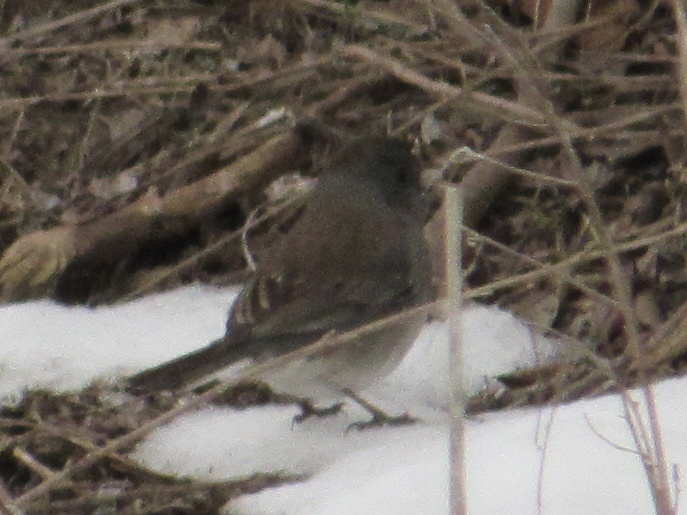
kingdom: Animalia
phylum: Chordata
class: Aves
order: Passeriformes
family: Passerellidae
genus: Junco
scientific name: Junco hyemalis
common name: Dark-eyed junco
